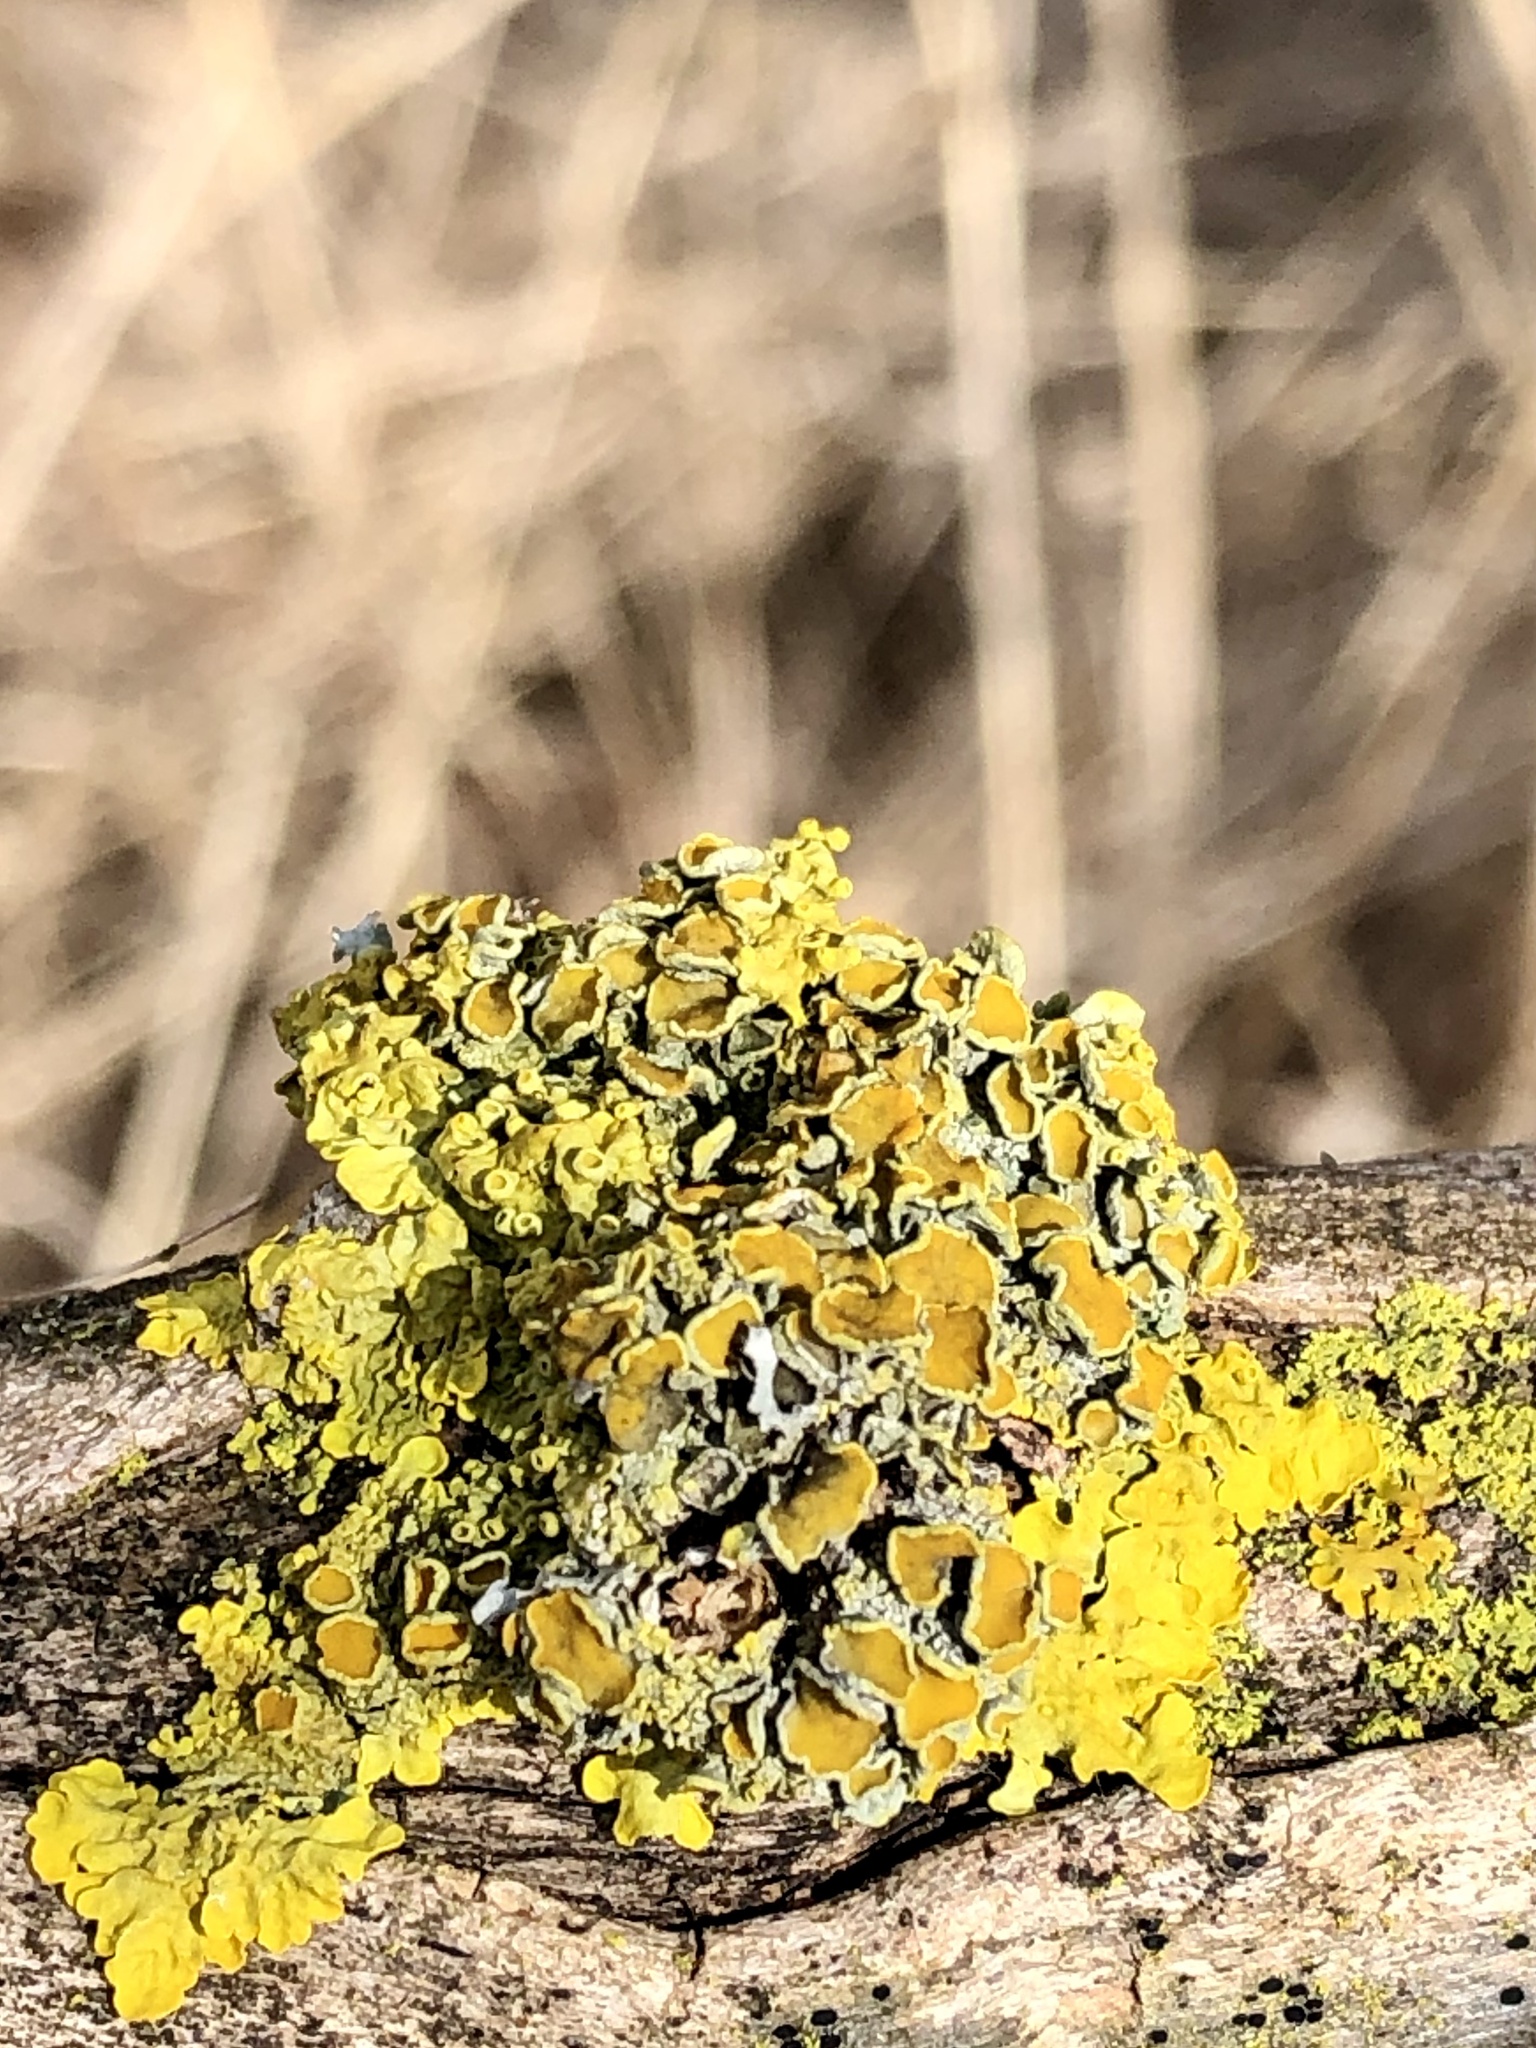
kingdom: Fungi
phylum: Ascomycota
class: Lecanoromycetes
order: Teloschistales
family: Teloschistaceae
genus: Xanthoria
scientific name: Xanthoria parietina
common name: Common orange lichen
